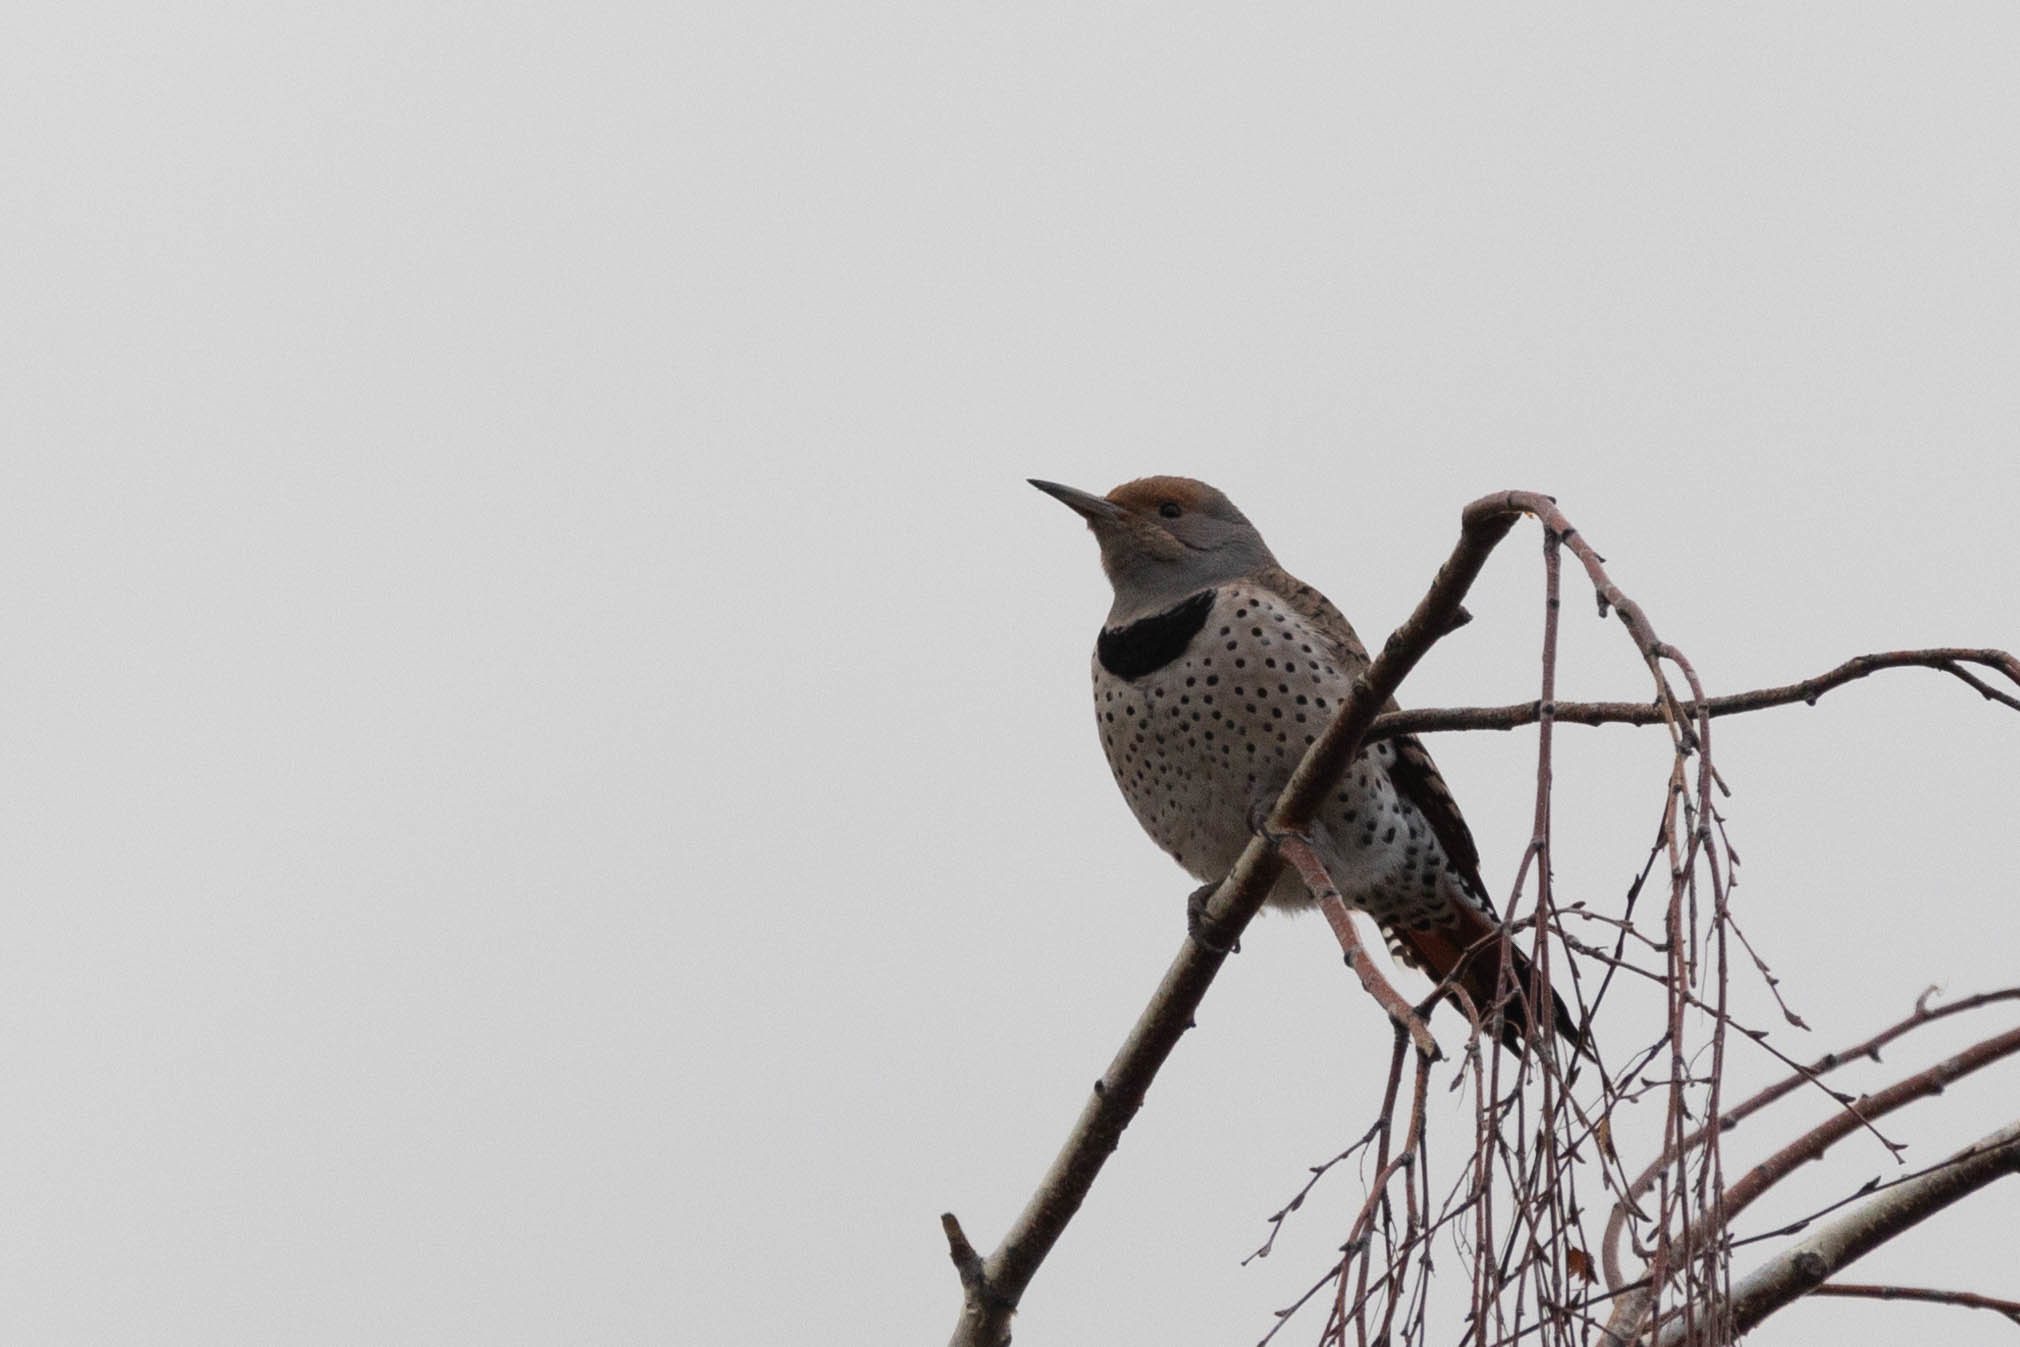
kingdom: Animalia
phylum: Chordata
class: Aves
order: Piciformes
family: Picidae
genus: Colaptes
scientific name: Colaptes auratus
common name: Northern flicker
